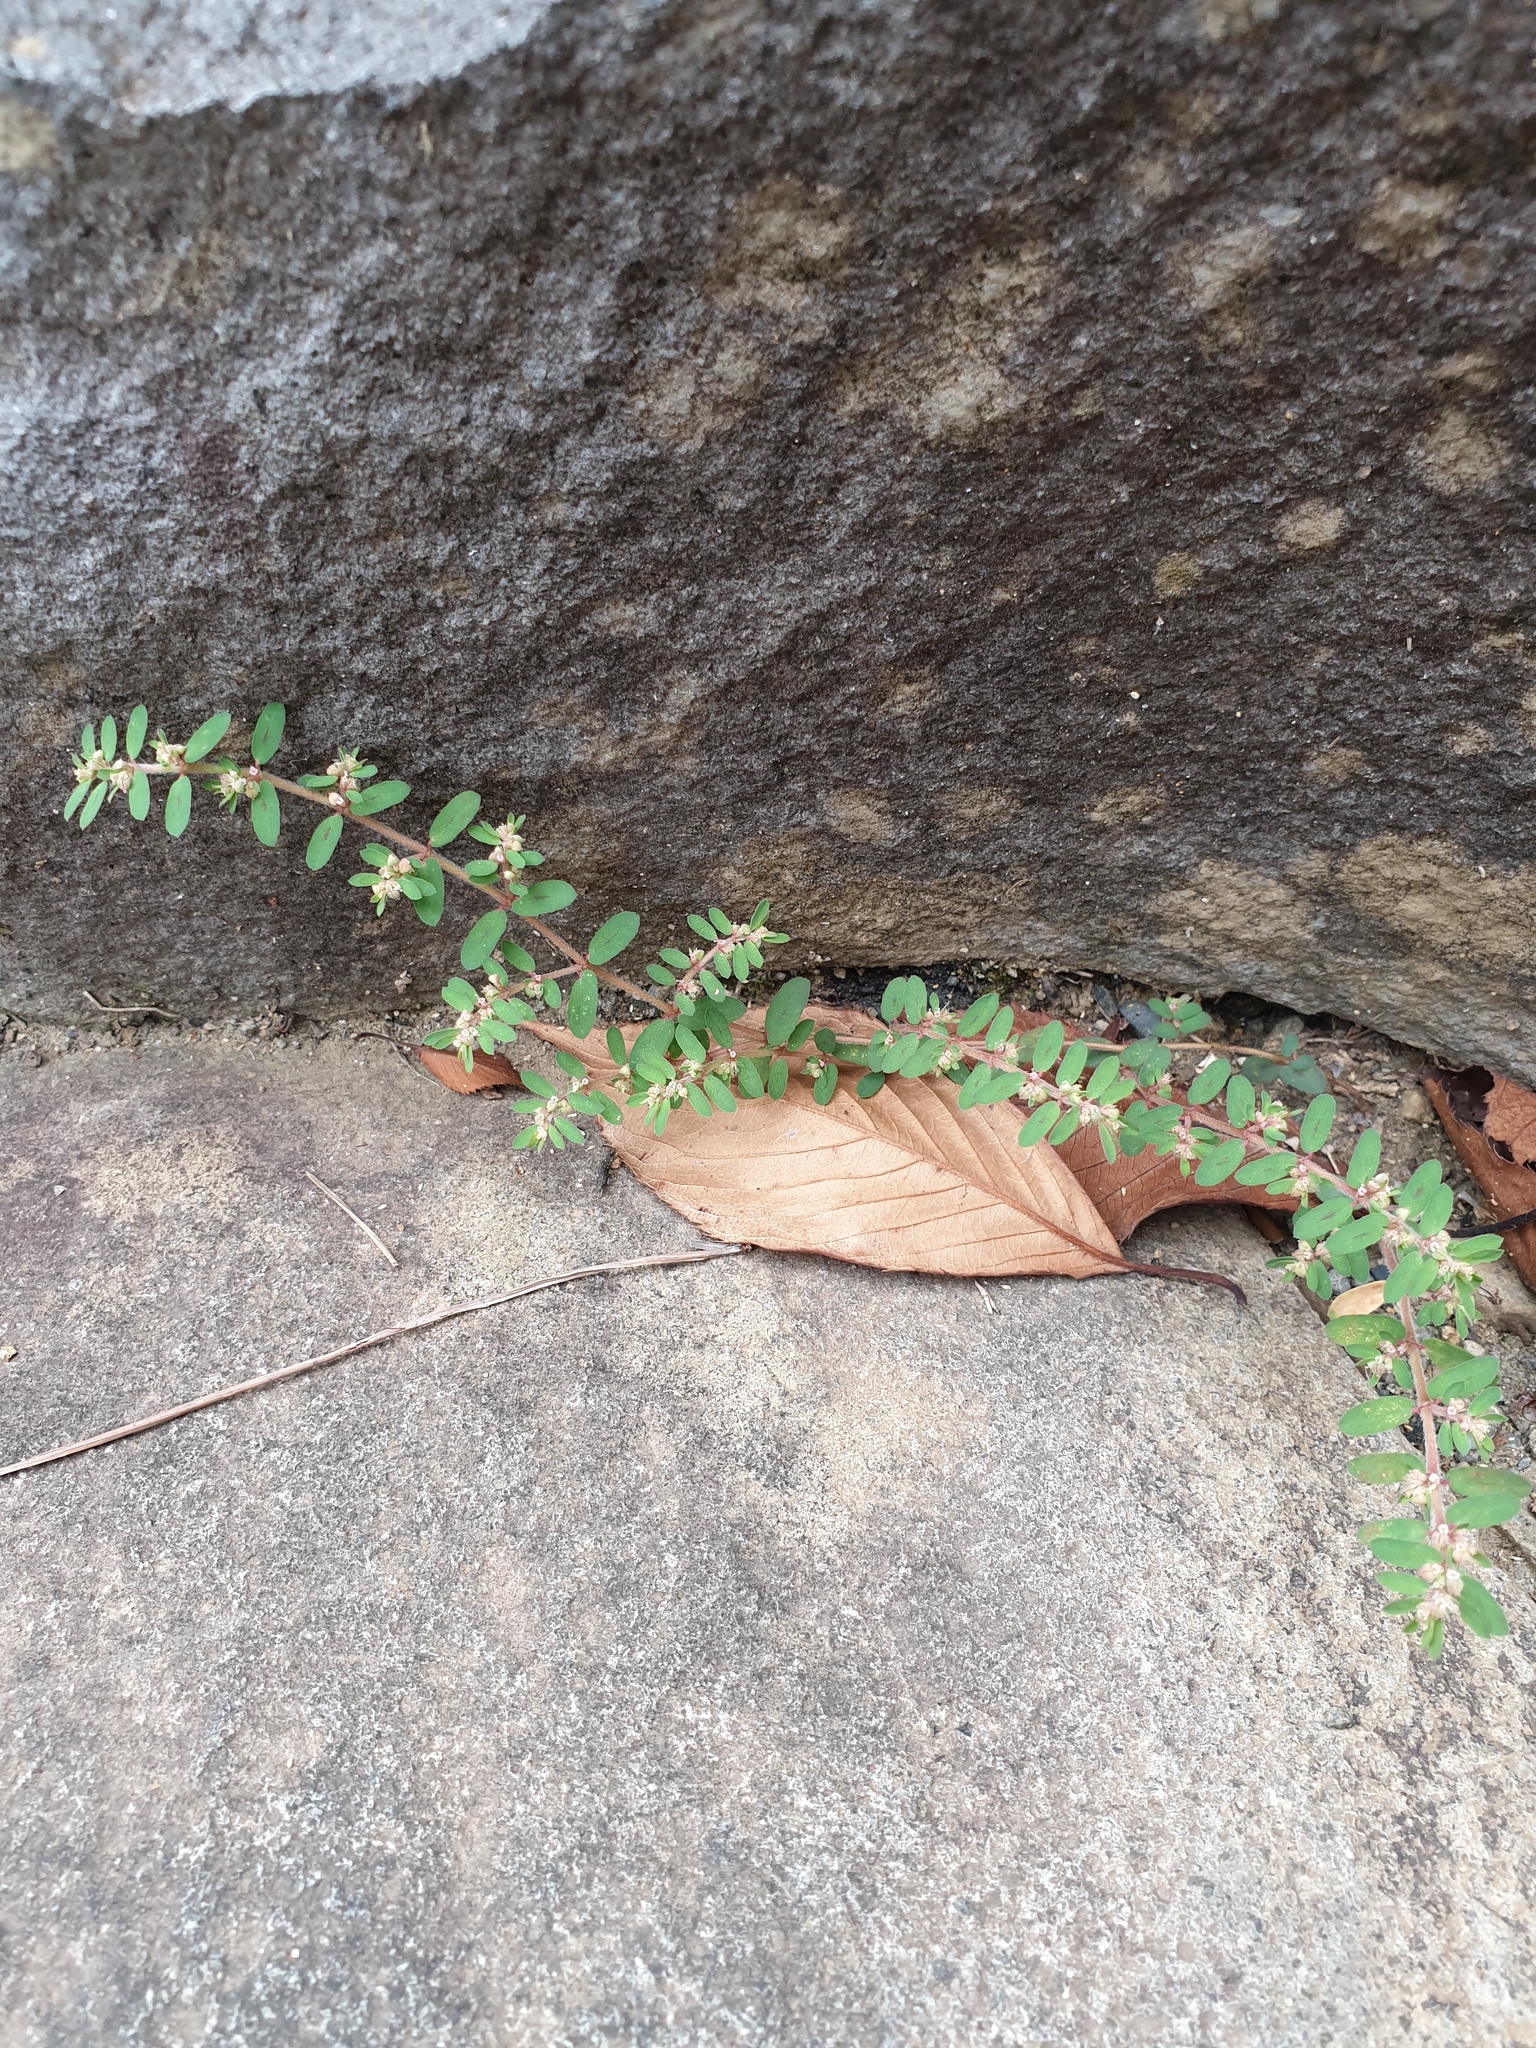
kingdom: Plantae
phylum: Tracheophyta
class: Magnoliopsida
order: Malpighiales
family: Euphorbiaceae
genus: Euphorbia
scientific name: Euphorbia maculata
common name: Spotted spurge
